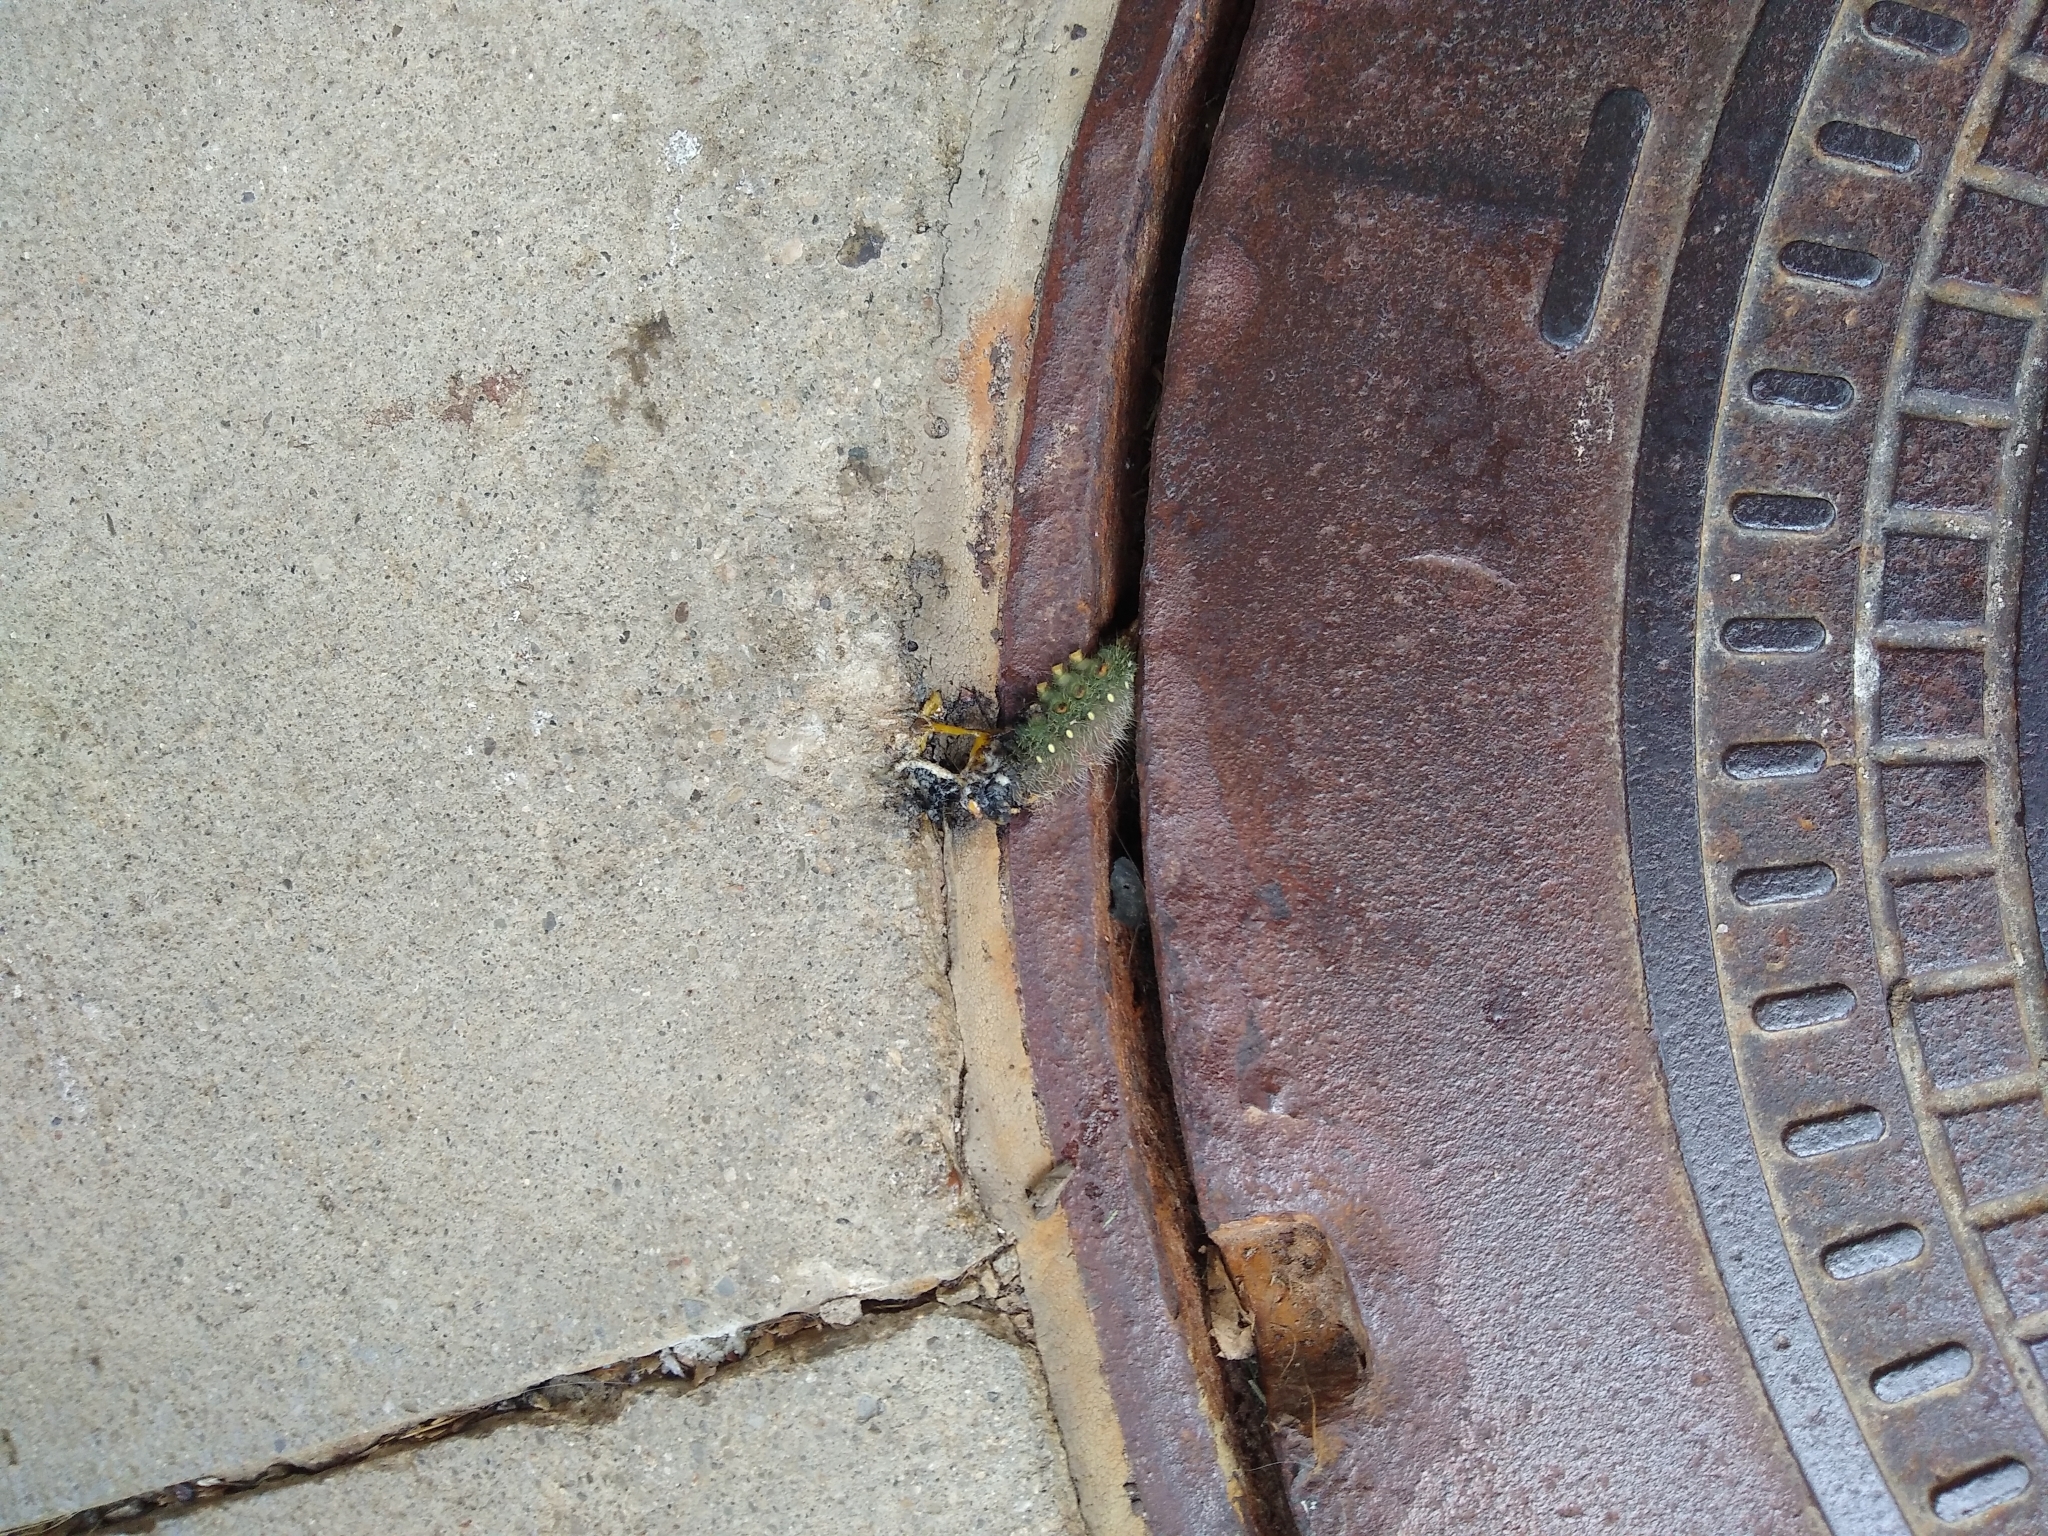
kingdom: Animalia
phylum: Arthropoda
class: Insecta
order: Lepidoptera
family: Saturniidae
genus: Eacles
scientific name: Eacles imperialis
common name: Imperial moth
